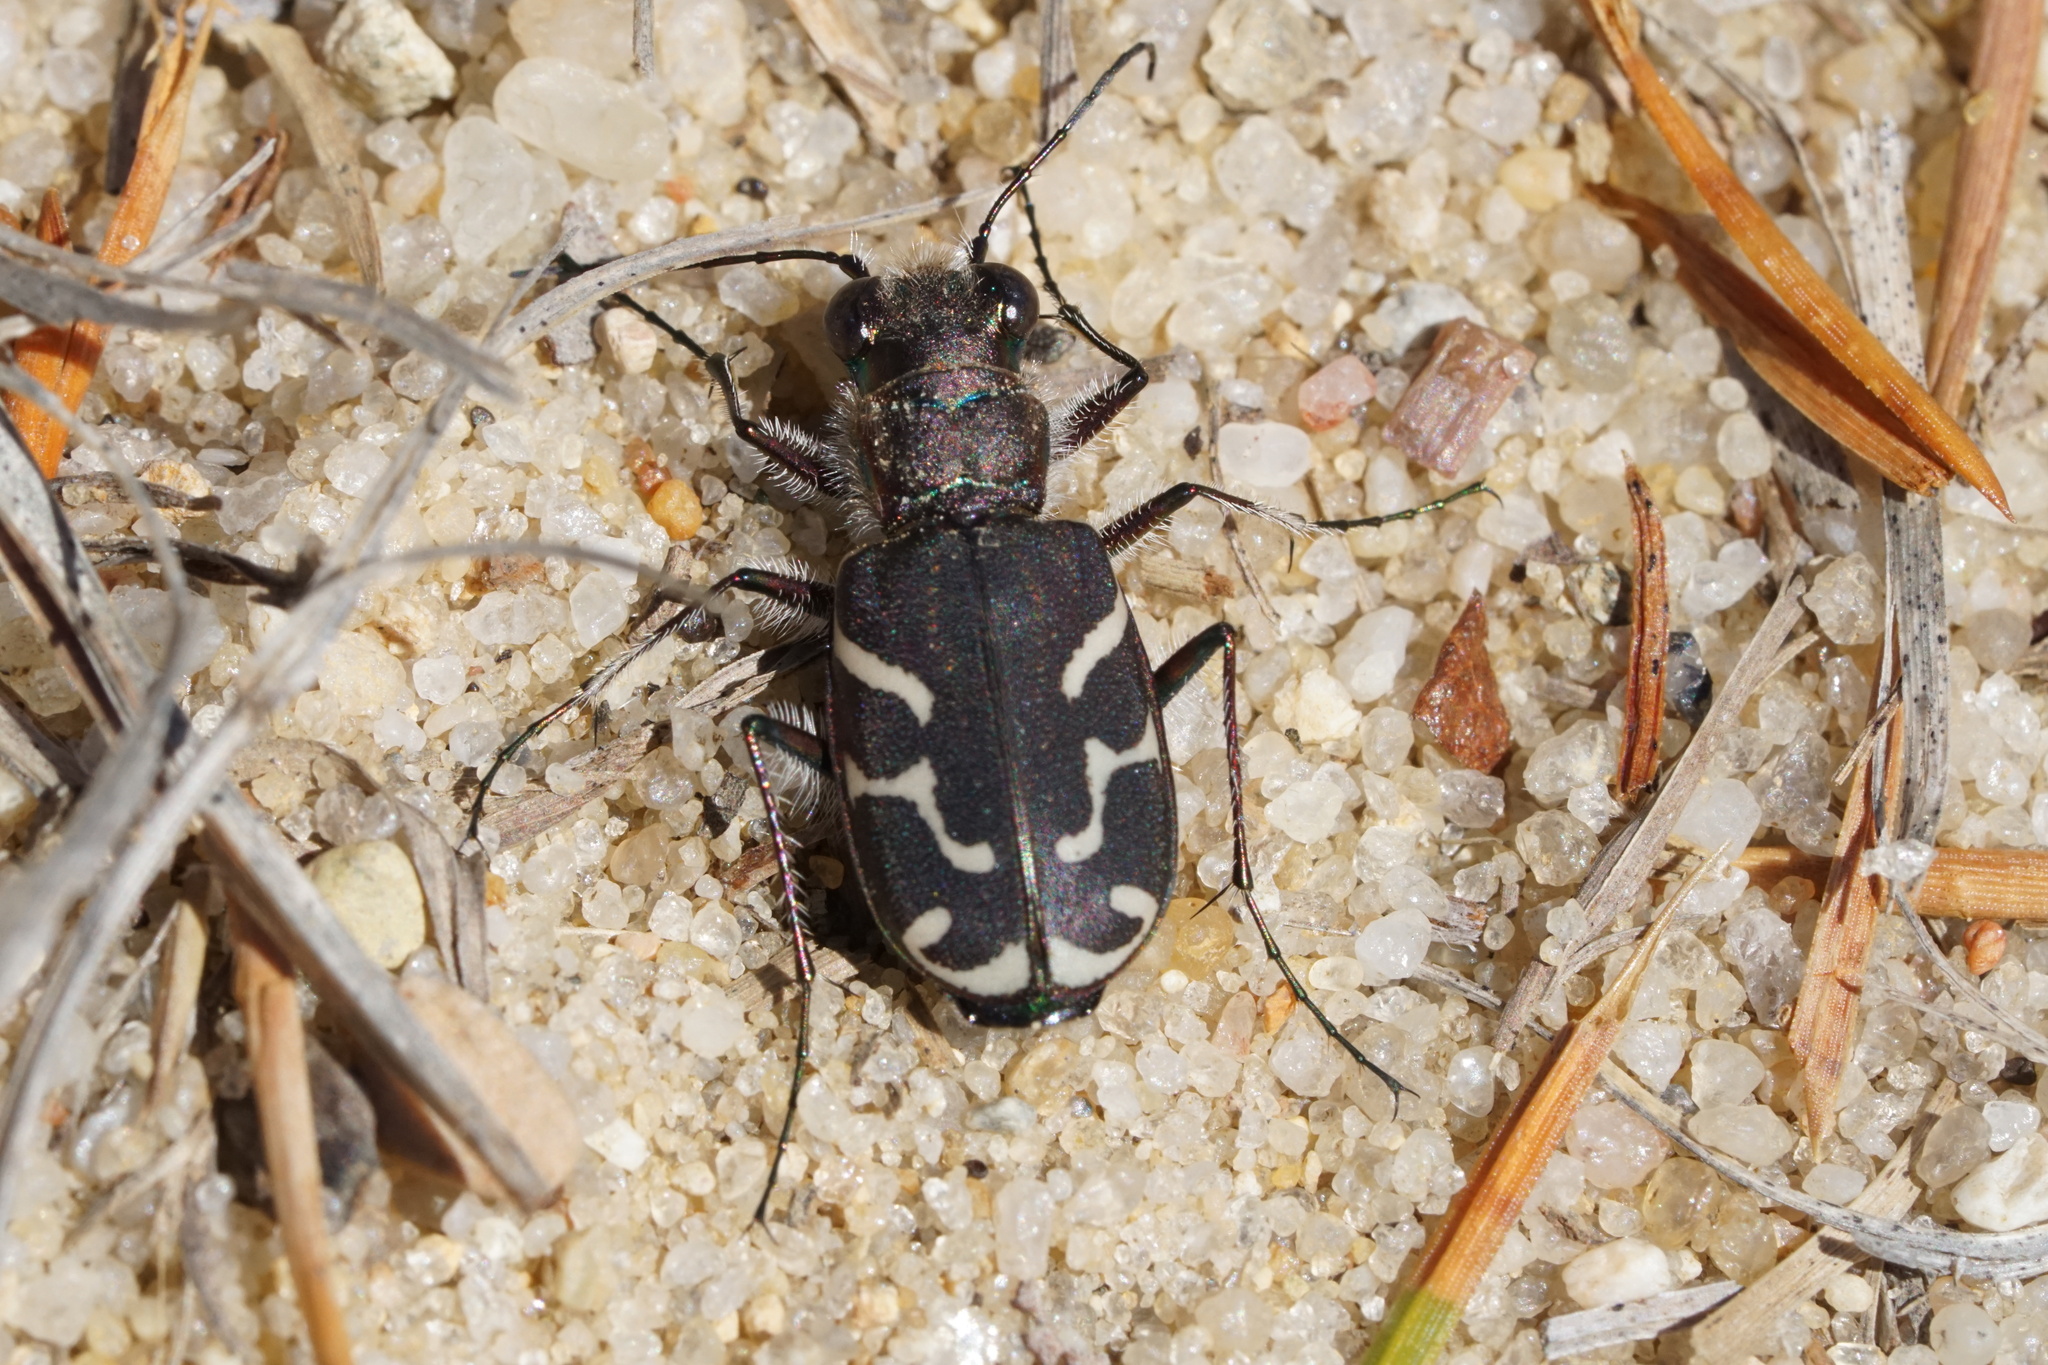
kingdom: Animalia
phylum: Arthropoda
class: Insecta
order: Coleoptera
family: Carabidae
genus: Cicindela
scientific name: Cicindela tranquebarica
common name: Oblique-lined tiger beetle
